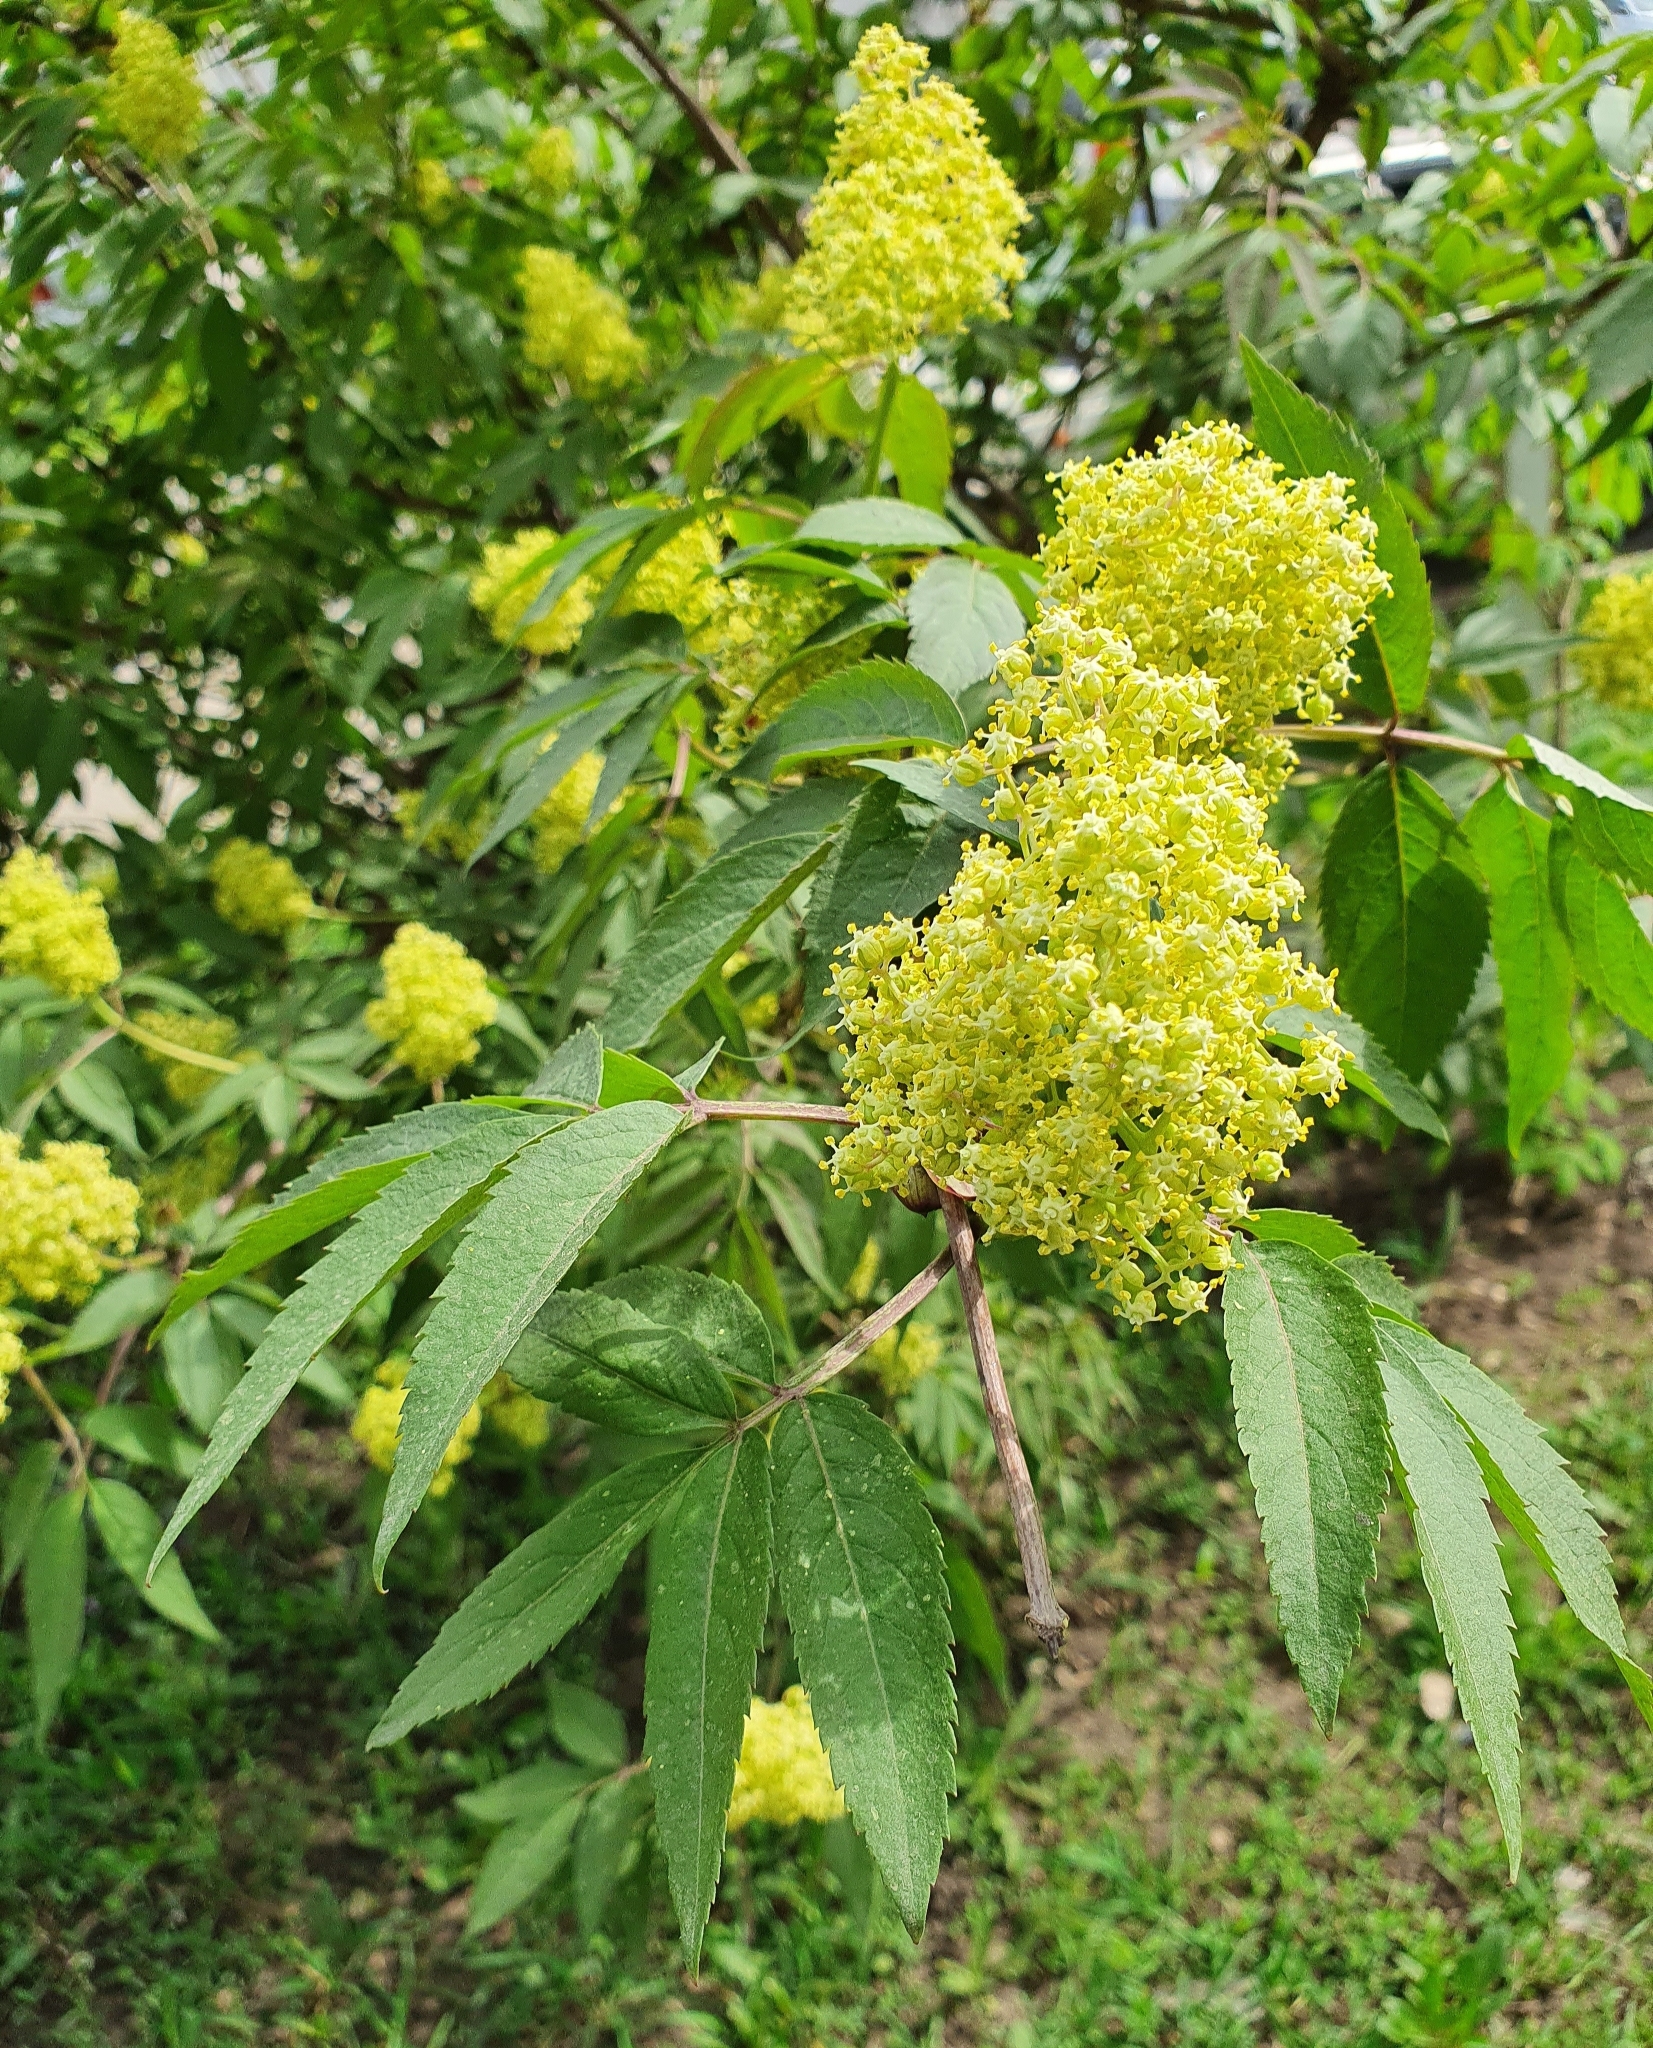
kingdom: Plantae
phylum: Tracheophyta
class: Magnoliopsida
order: Dipsacales
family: Viburnaceae
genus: Sambucus
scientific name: Sambucus racemosa
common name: Red-berried elder
